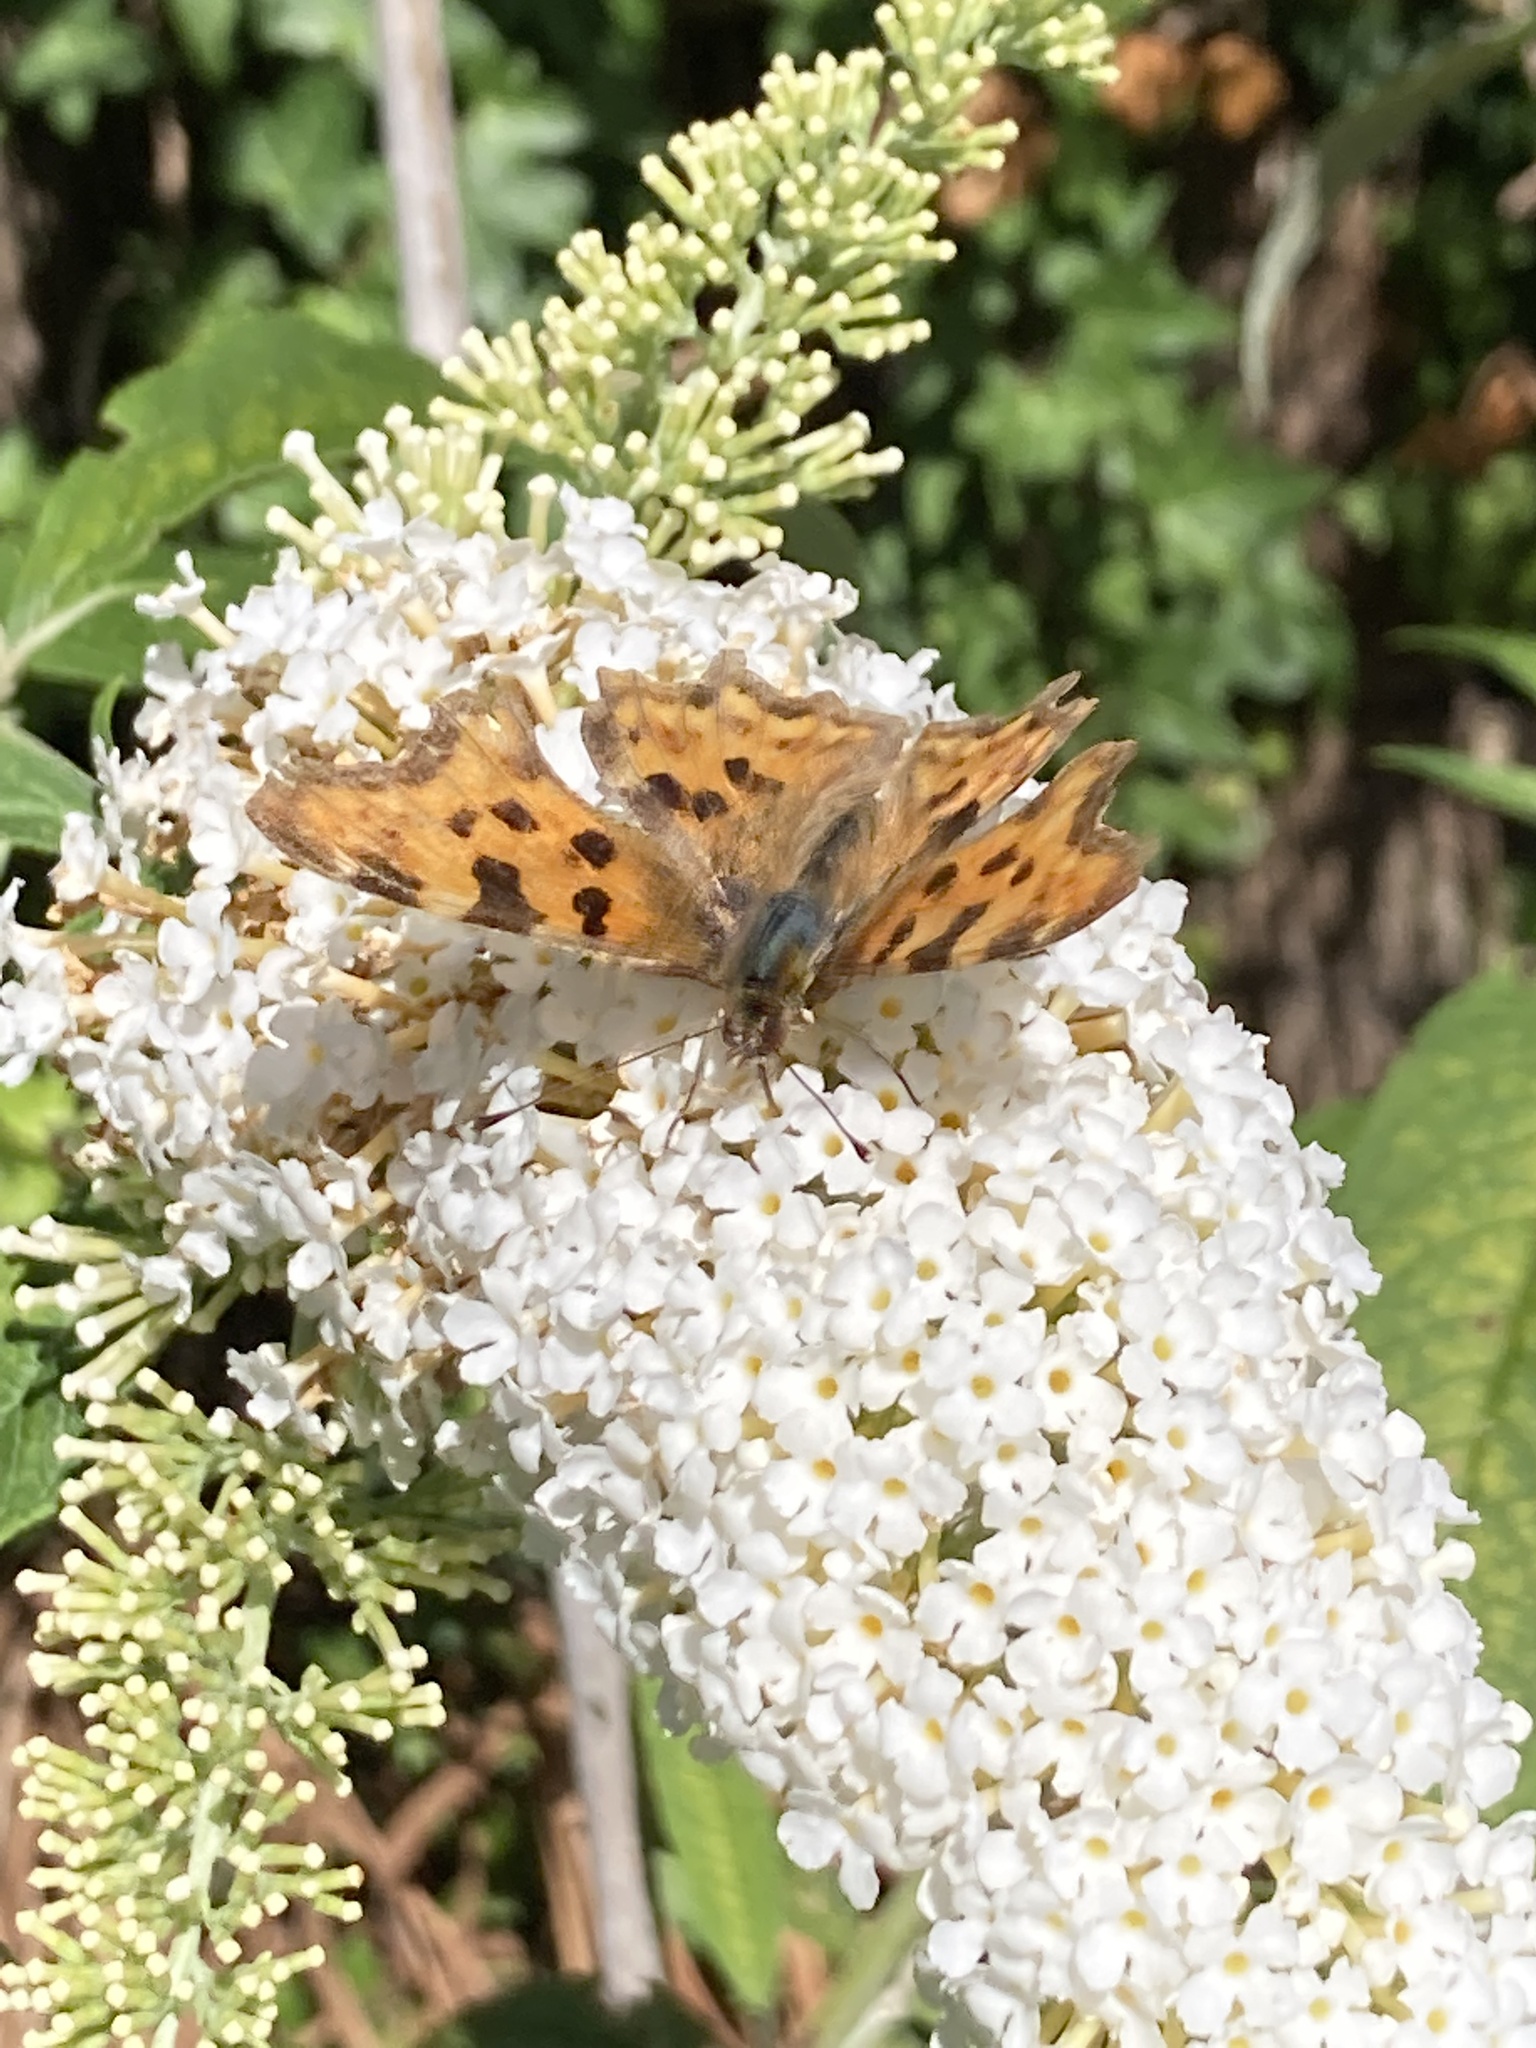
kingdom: Animalia
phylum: Arthropoda
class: Insecta
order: Lepidoptera
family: Nymphalidae
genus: Polygonia
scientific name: Polygonia c-album
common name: Comma
